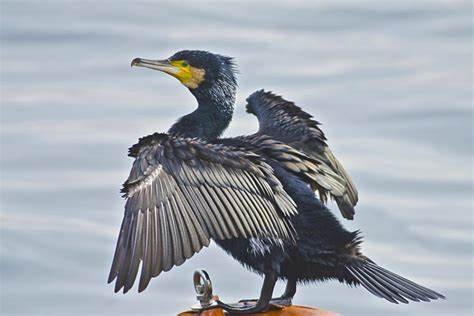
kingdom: Animalia
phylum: Chordata
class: Aves
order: Suliformes
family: Phalacrocoracidae
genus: Phalacrocorax
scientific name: Phalacrocorax carbo
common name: Great cormorant
